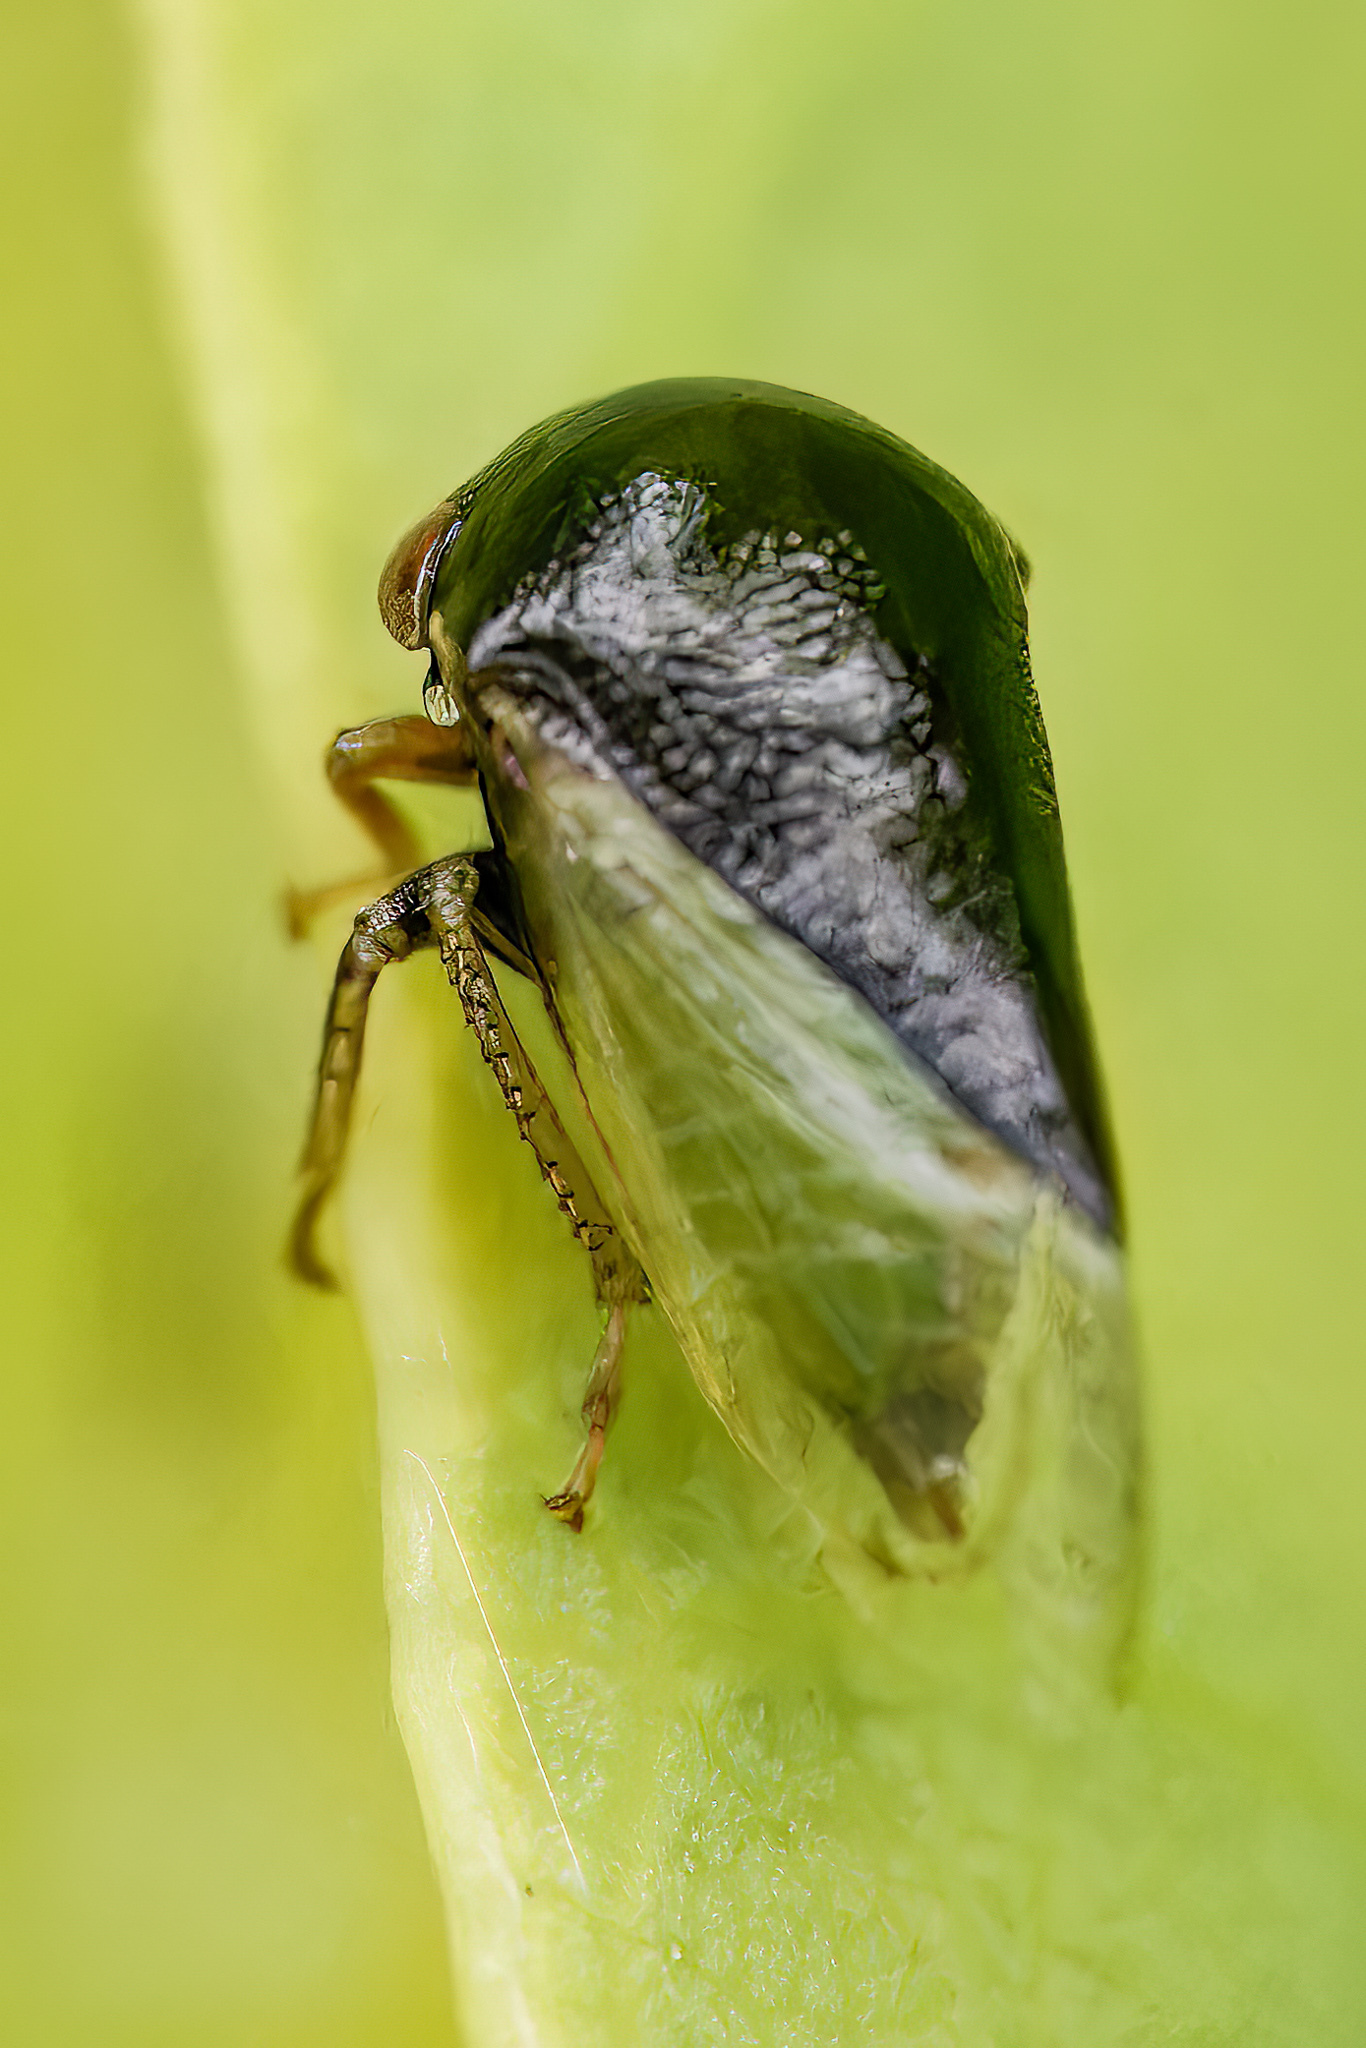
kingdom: Animalia
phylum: Arthropoda
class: Insecta
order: Hemiptera
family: Membracidae
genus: Micrutalis
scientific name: Micrutalis calva
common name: Honeylocust treehopper
